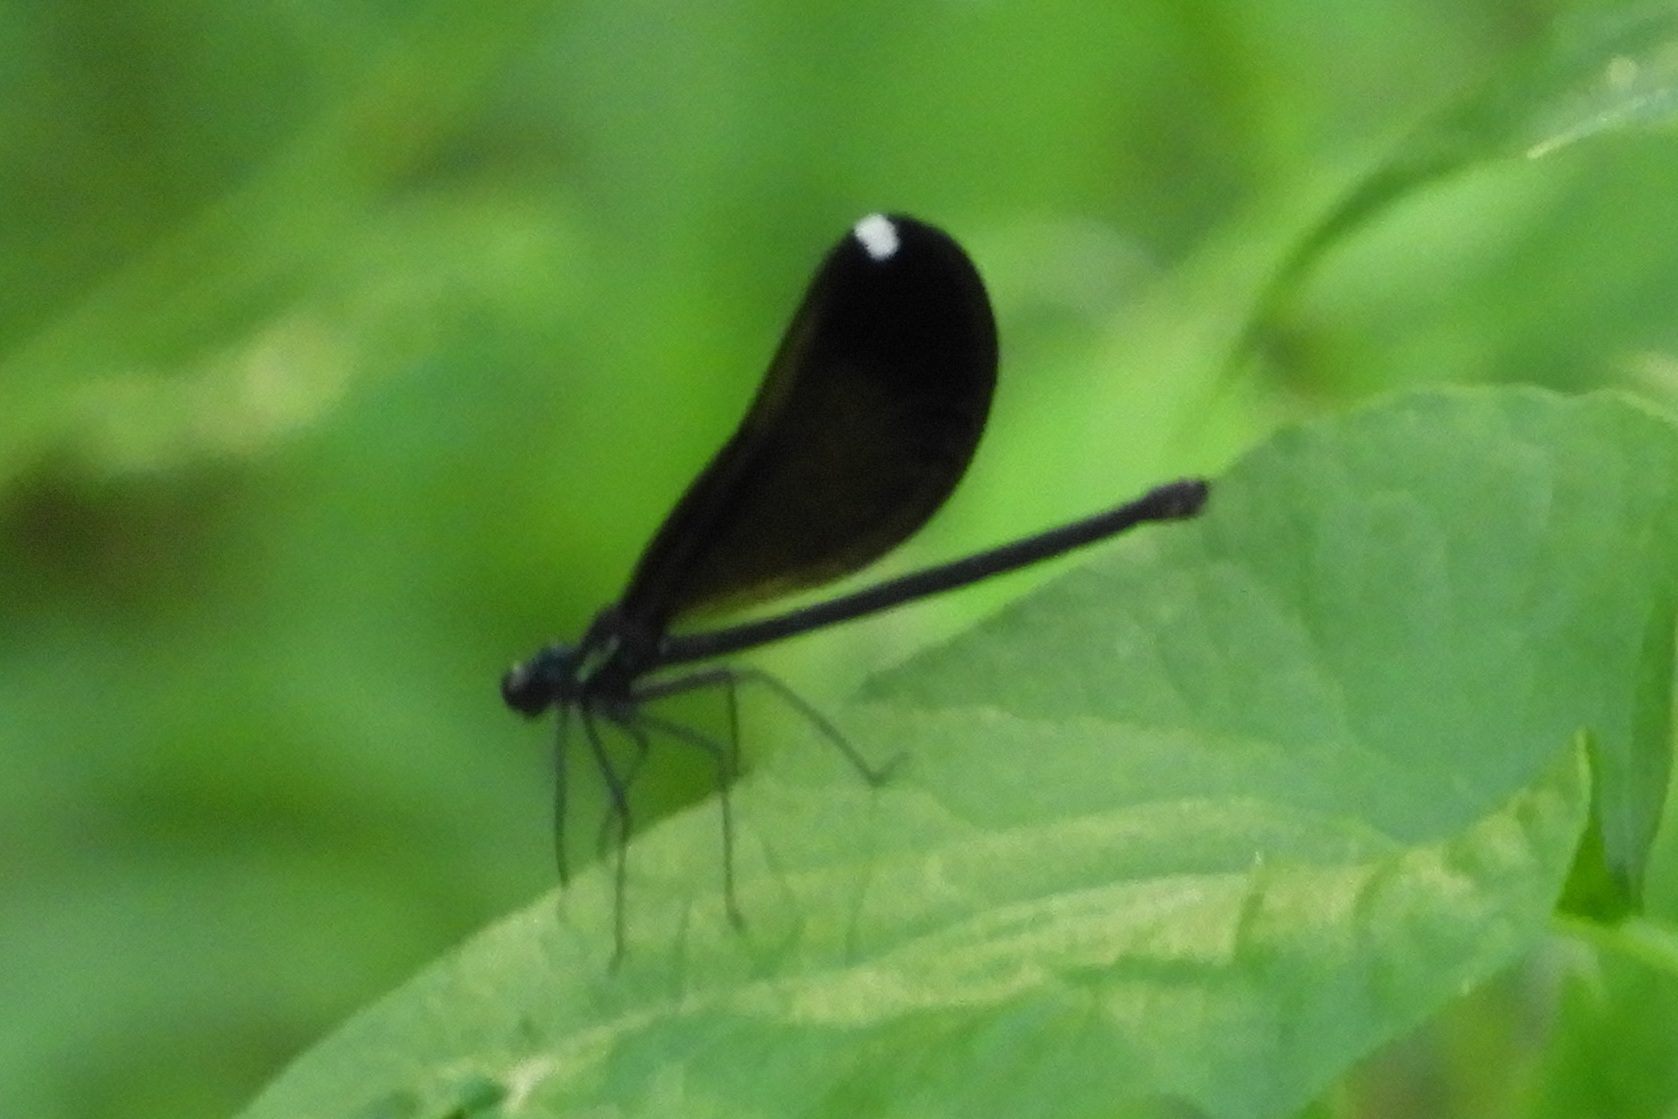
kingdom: Animalia
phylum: Arthropoda
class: Insecta
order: Odonata
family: Calopterygidae
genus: Calopteryx
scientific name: Calopteryx maculata
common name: Ebony jewelwing
